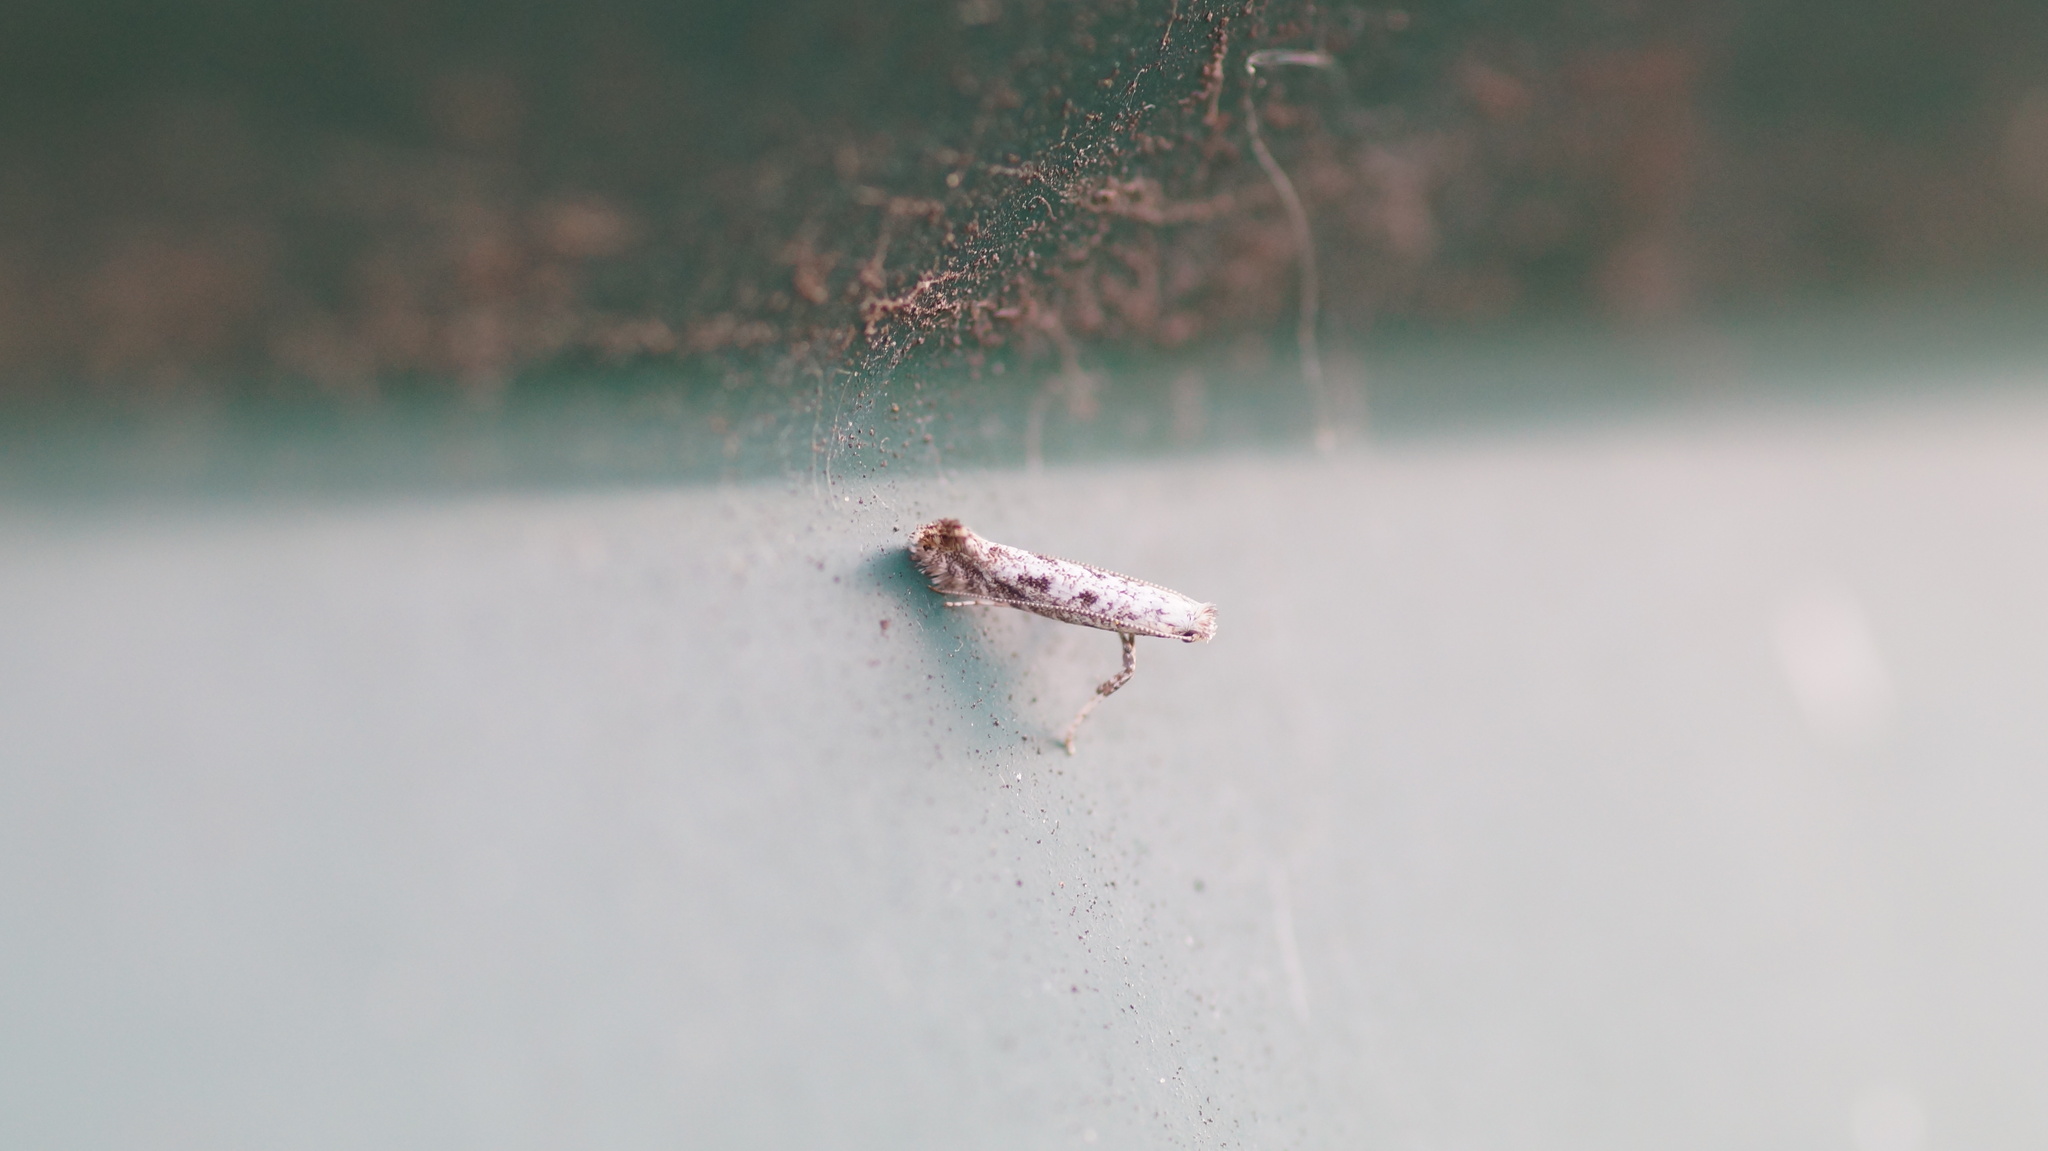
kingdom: Animalia
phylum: Arthropoda
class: Insecta
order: Lepidoptera
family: Gracillariidae
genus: Parornix
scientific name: Parornix
